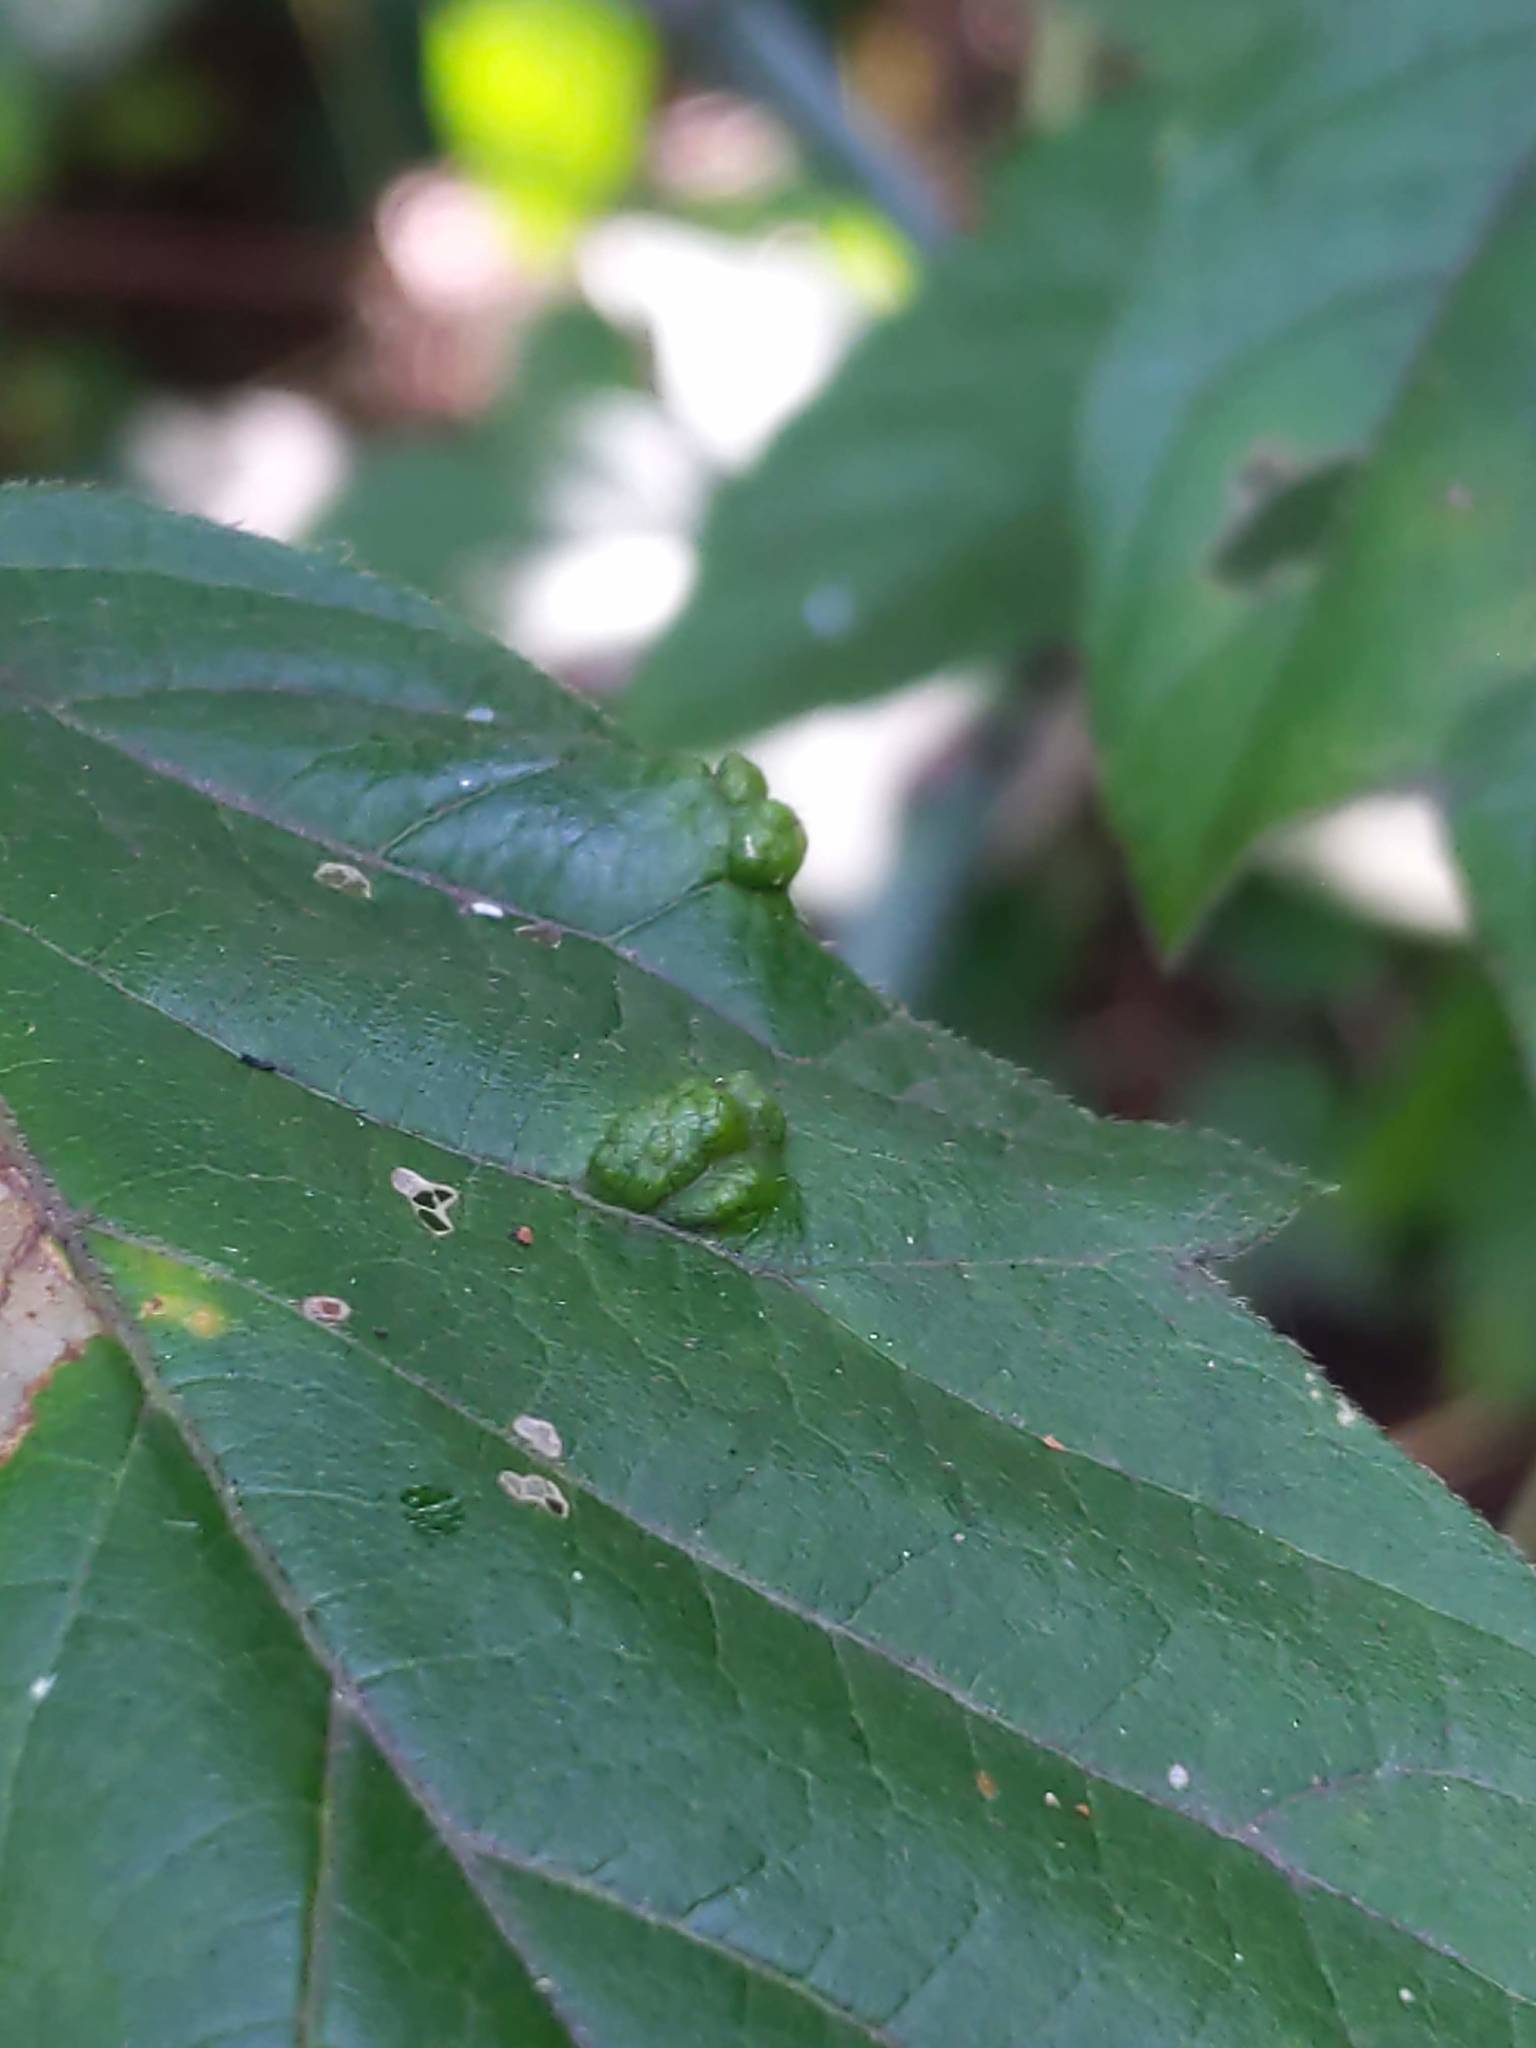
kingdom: Animalia
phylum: Arthropoda
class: Arachnida
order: Trombidiformes
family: Eriophyidae
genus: Aceria
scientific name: Aceria
